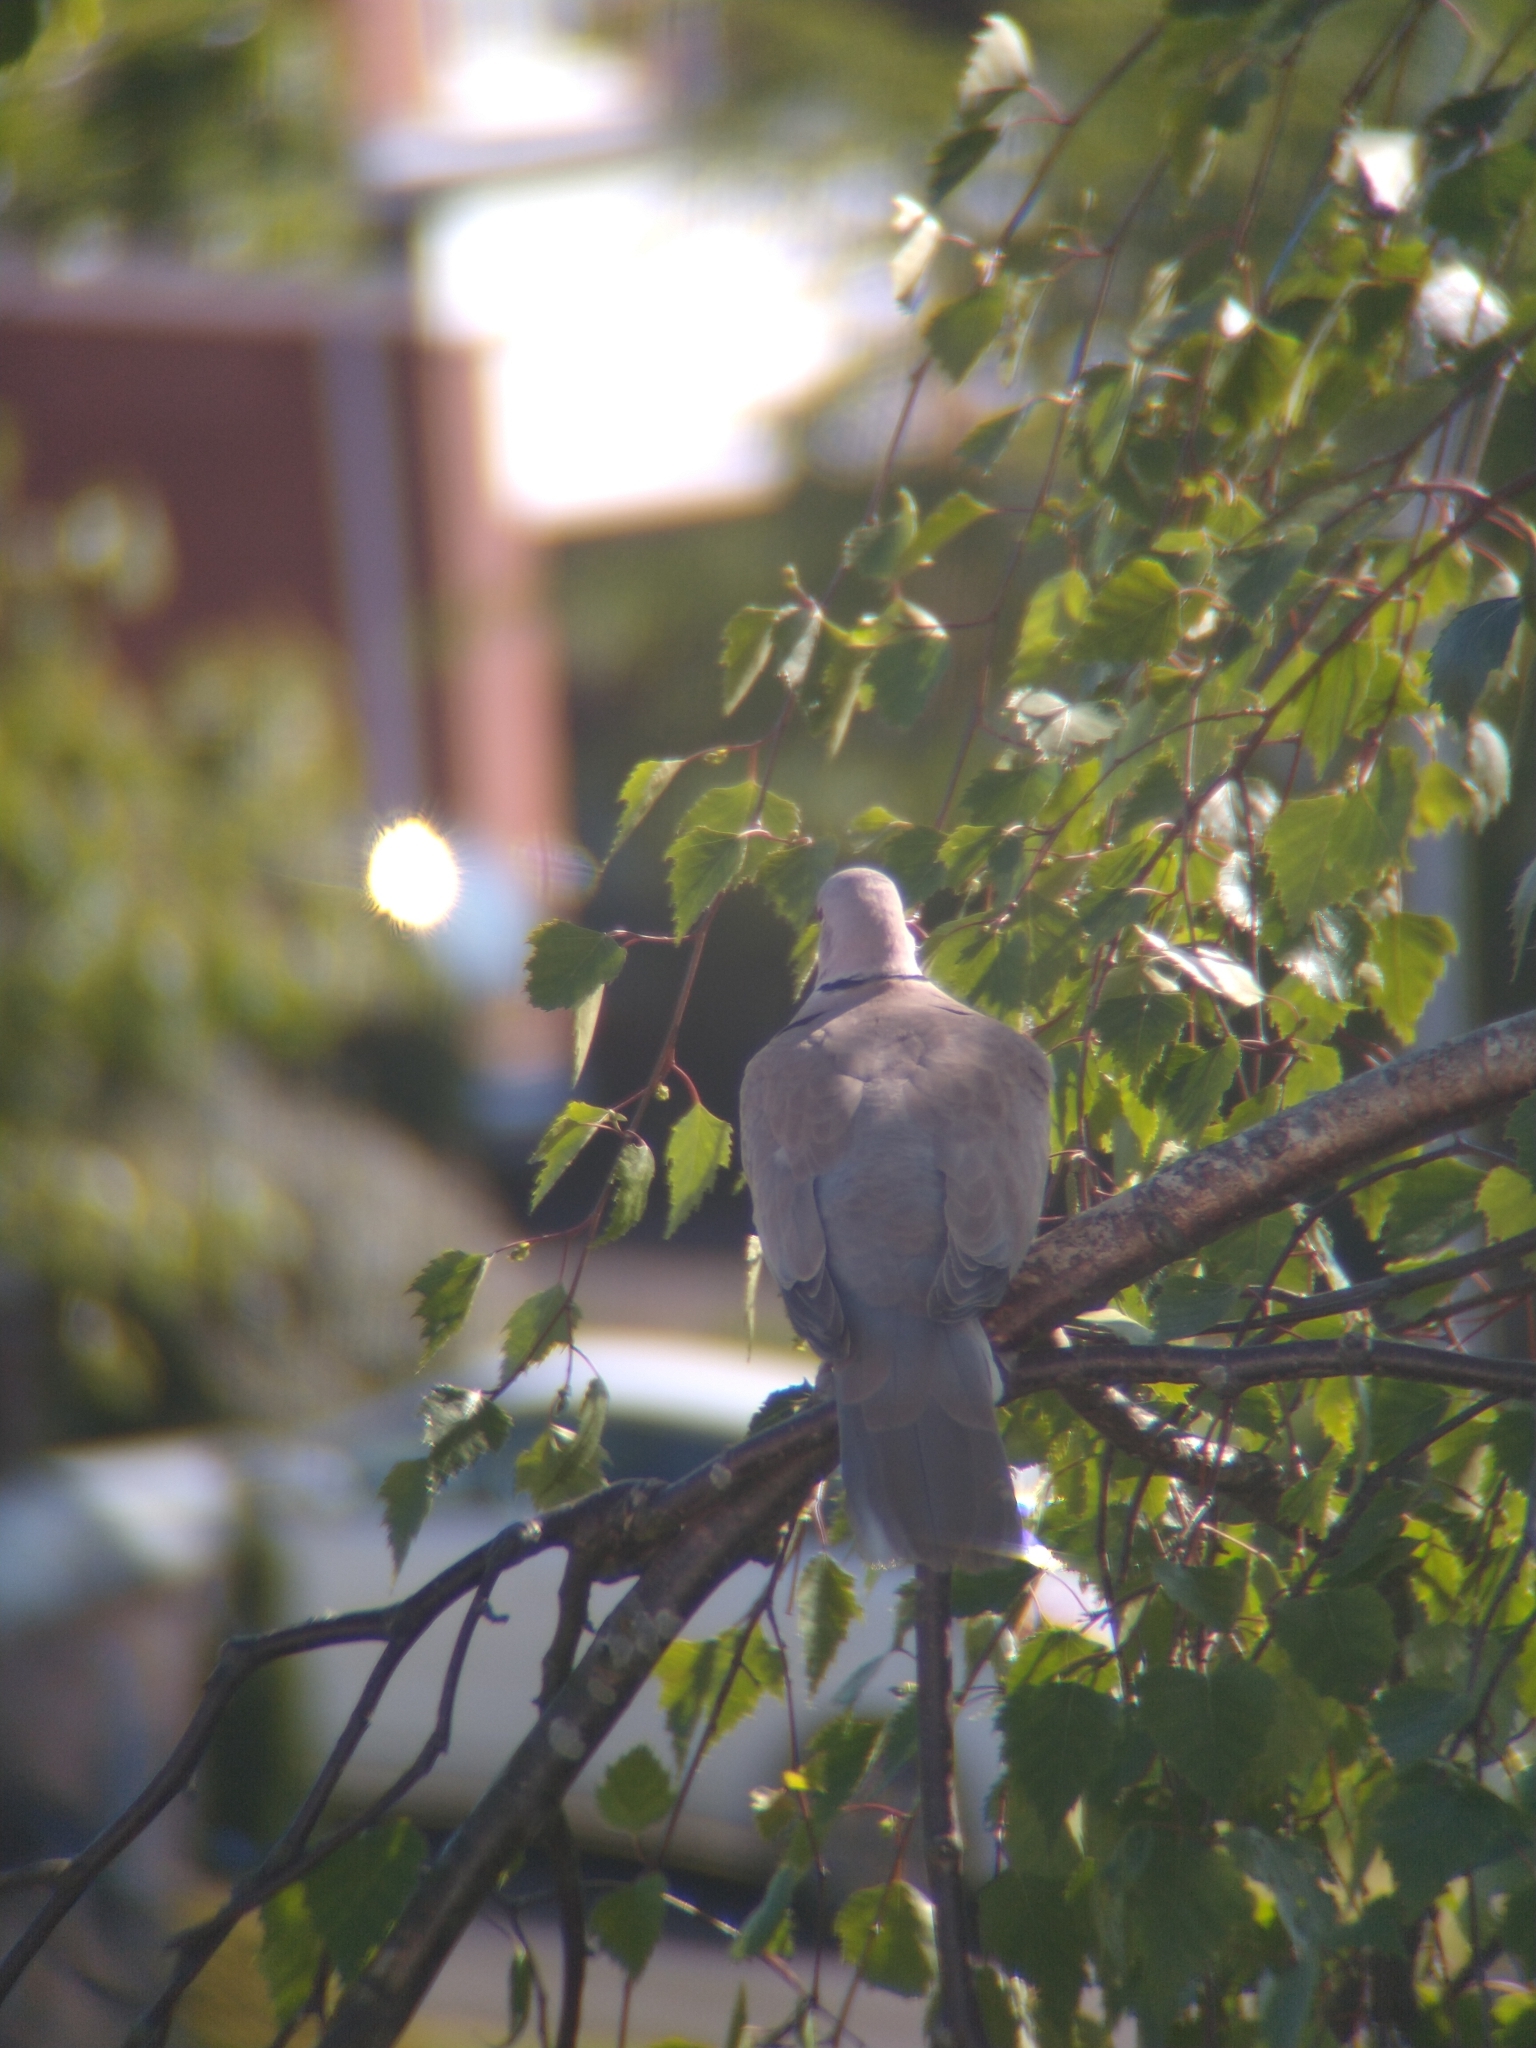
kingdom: Animalia
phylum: Chordata
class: Aves
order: Columbiformes
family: Columbidae
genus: Streptopelia
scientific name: Streptopelia decaocto
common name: Eurasian collared dove
